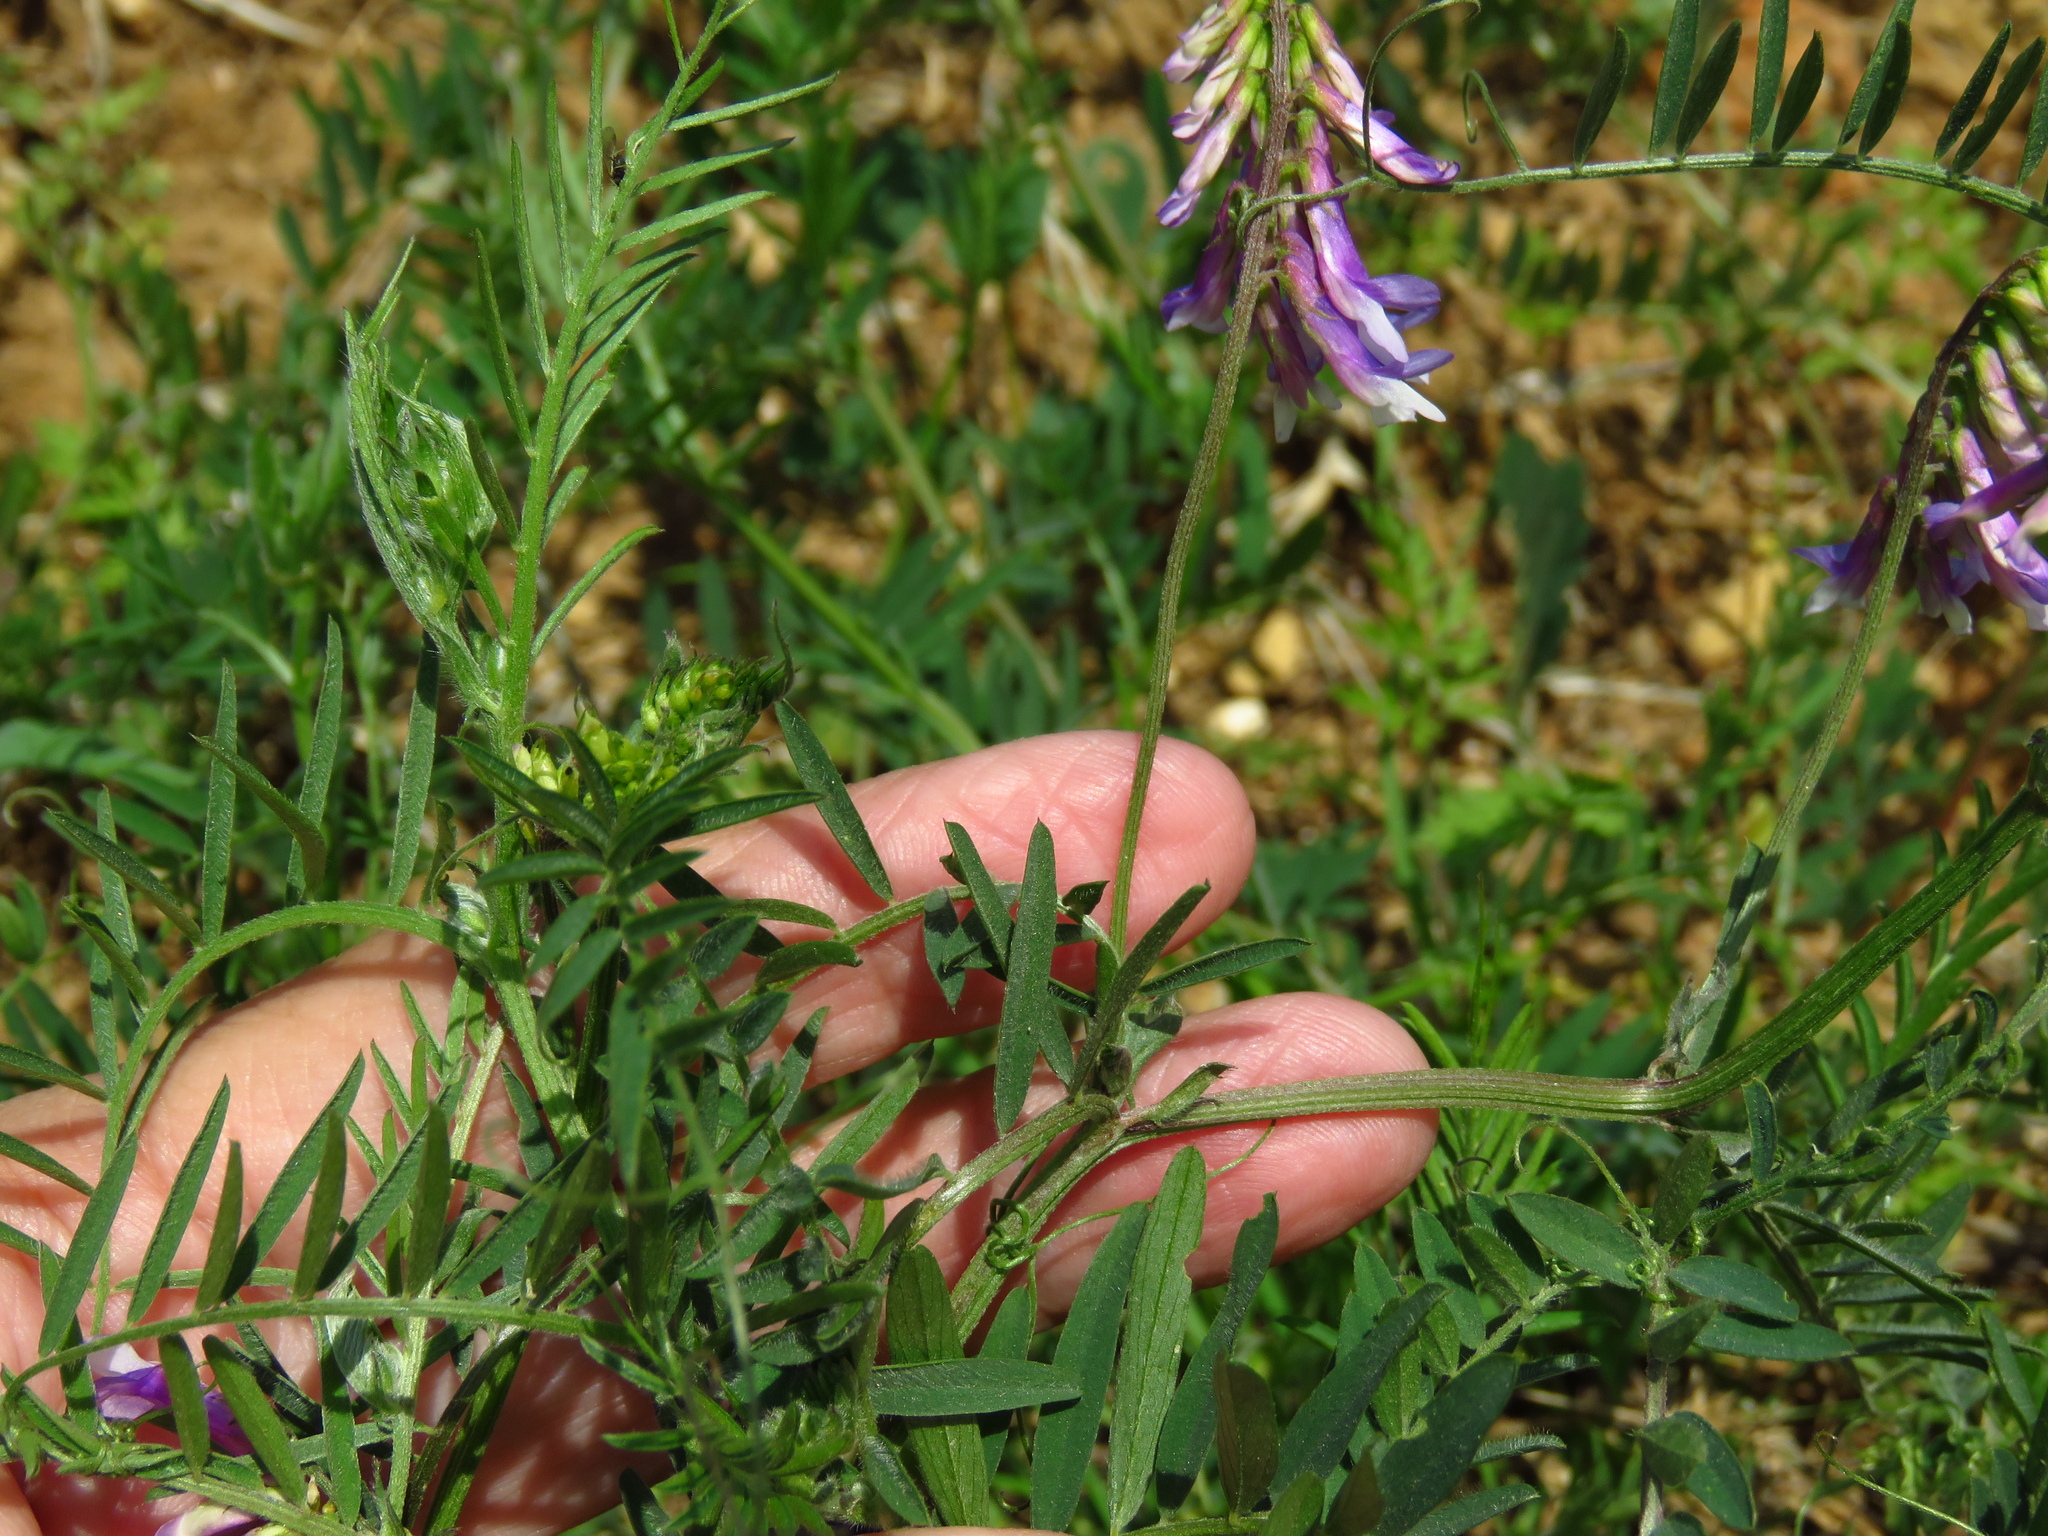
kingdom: Plantae
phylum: Tracheophyta
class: Magnoliopsida
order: Fabales
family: Fabaceae
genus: Vicia
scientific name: Vicia villosa
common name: Fodder vetch
